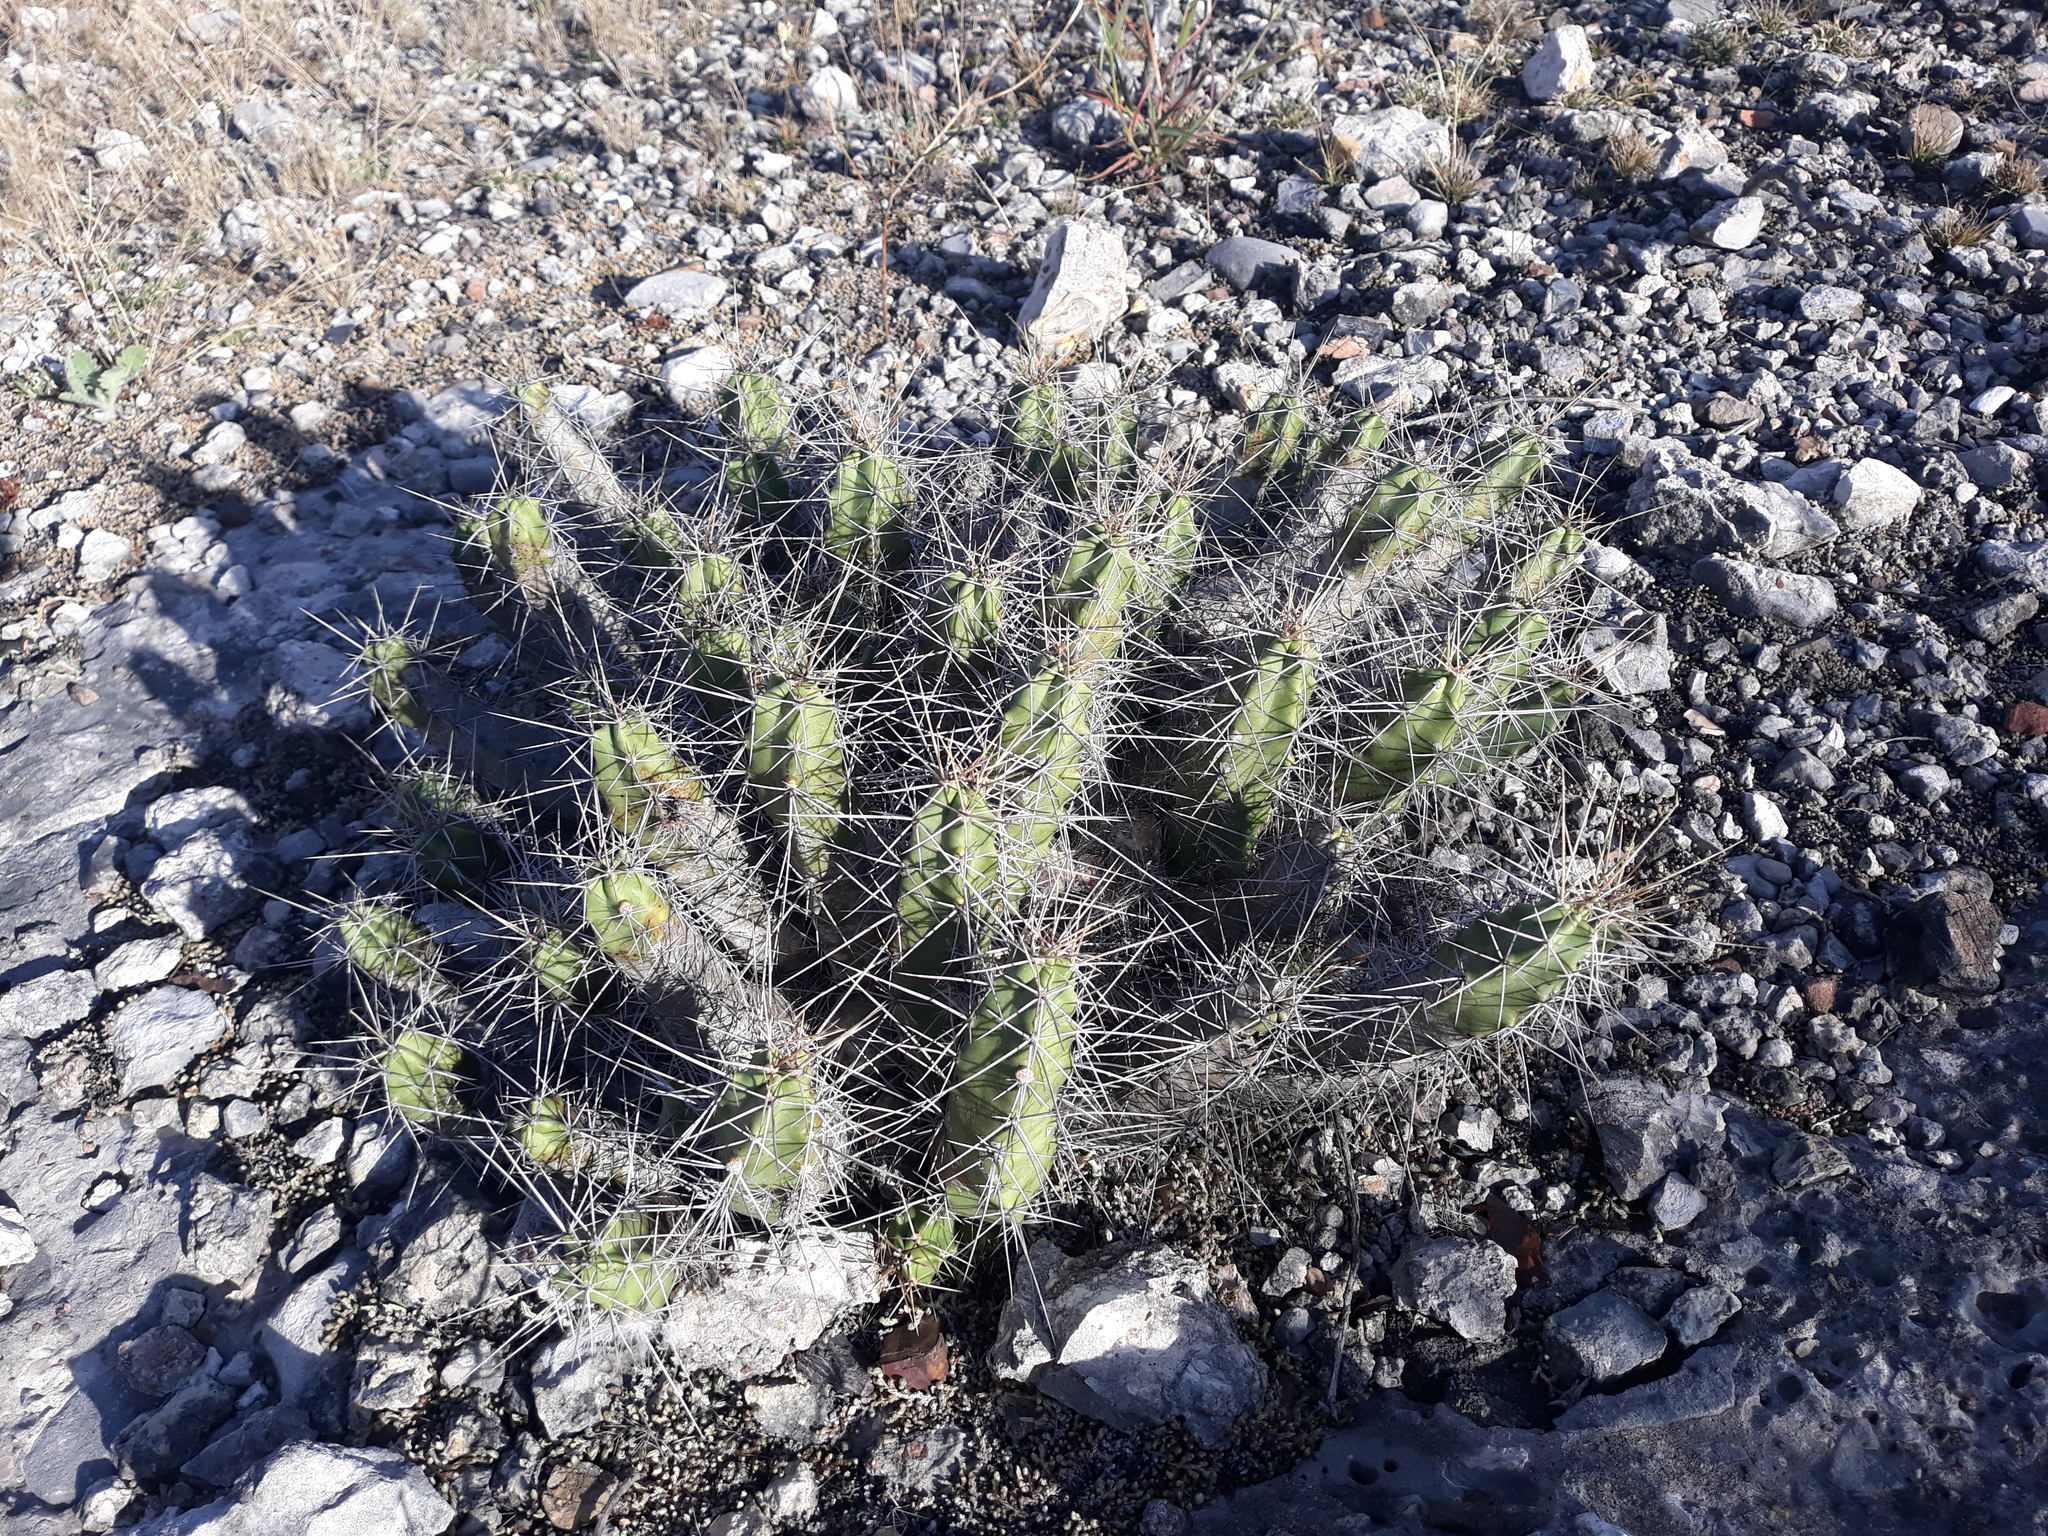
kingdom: Plantae
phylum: Tracheophyta
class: Magnoliopsida
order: Caryophyllales
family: Cactaceae
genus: Echinocereus
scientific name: Echinocereus pentalophus
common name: Ladyfinger cactus
